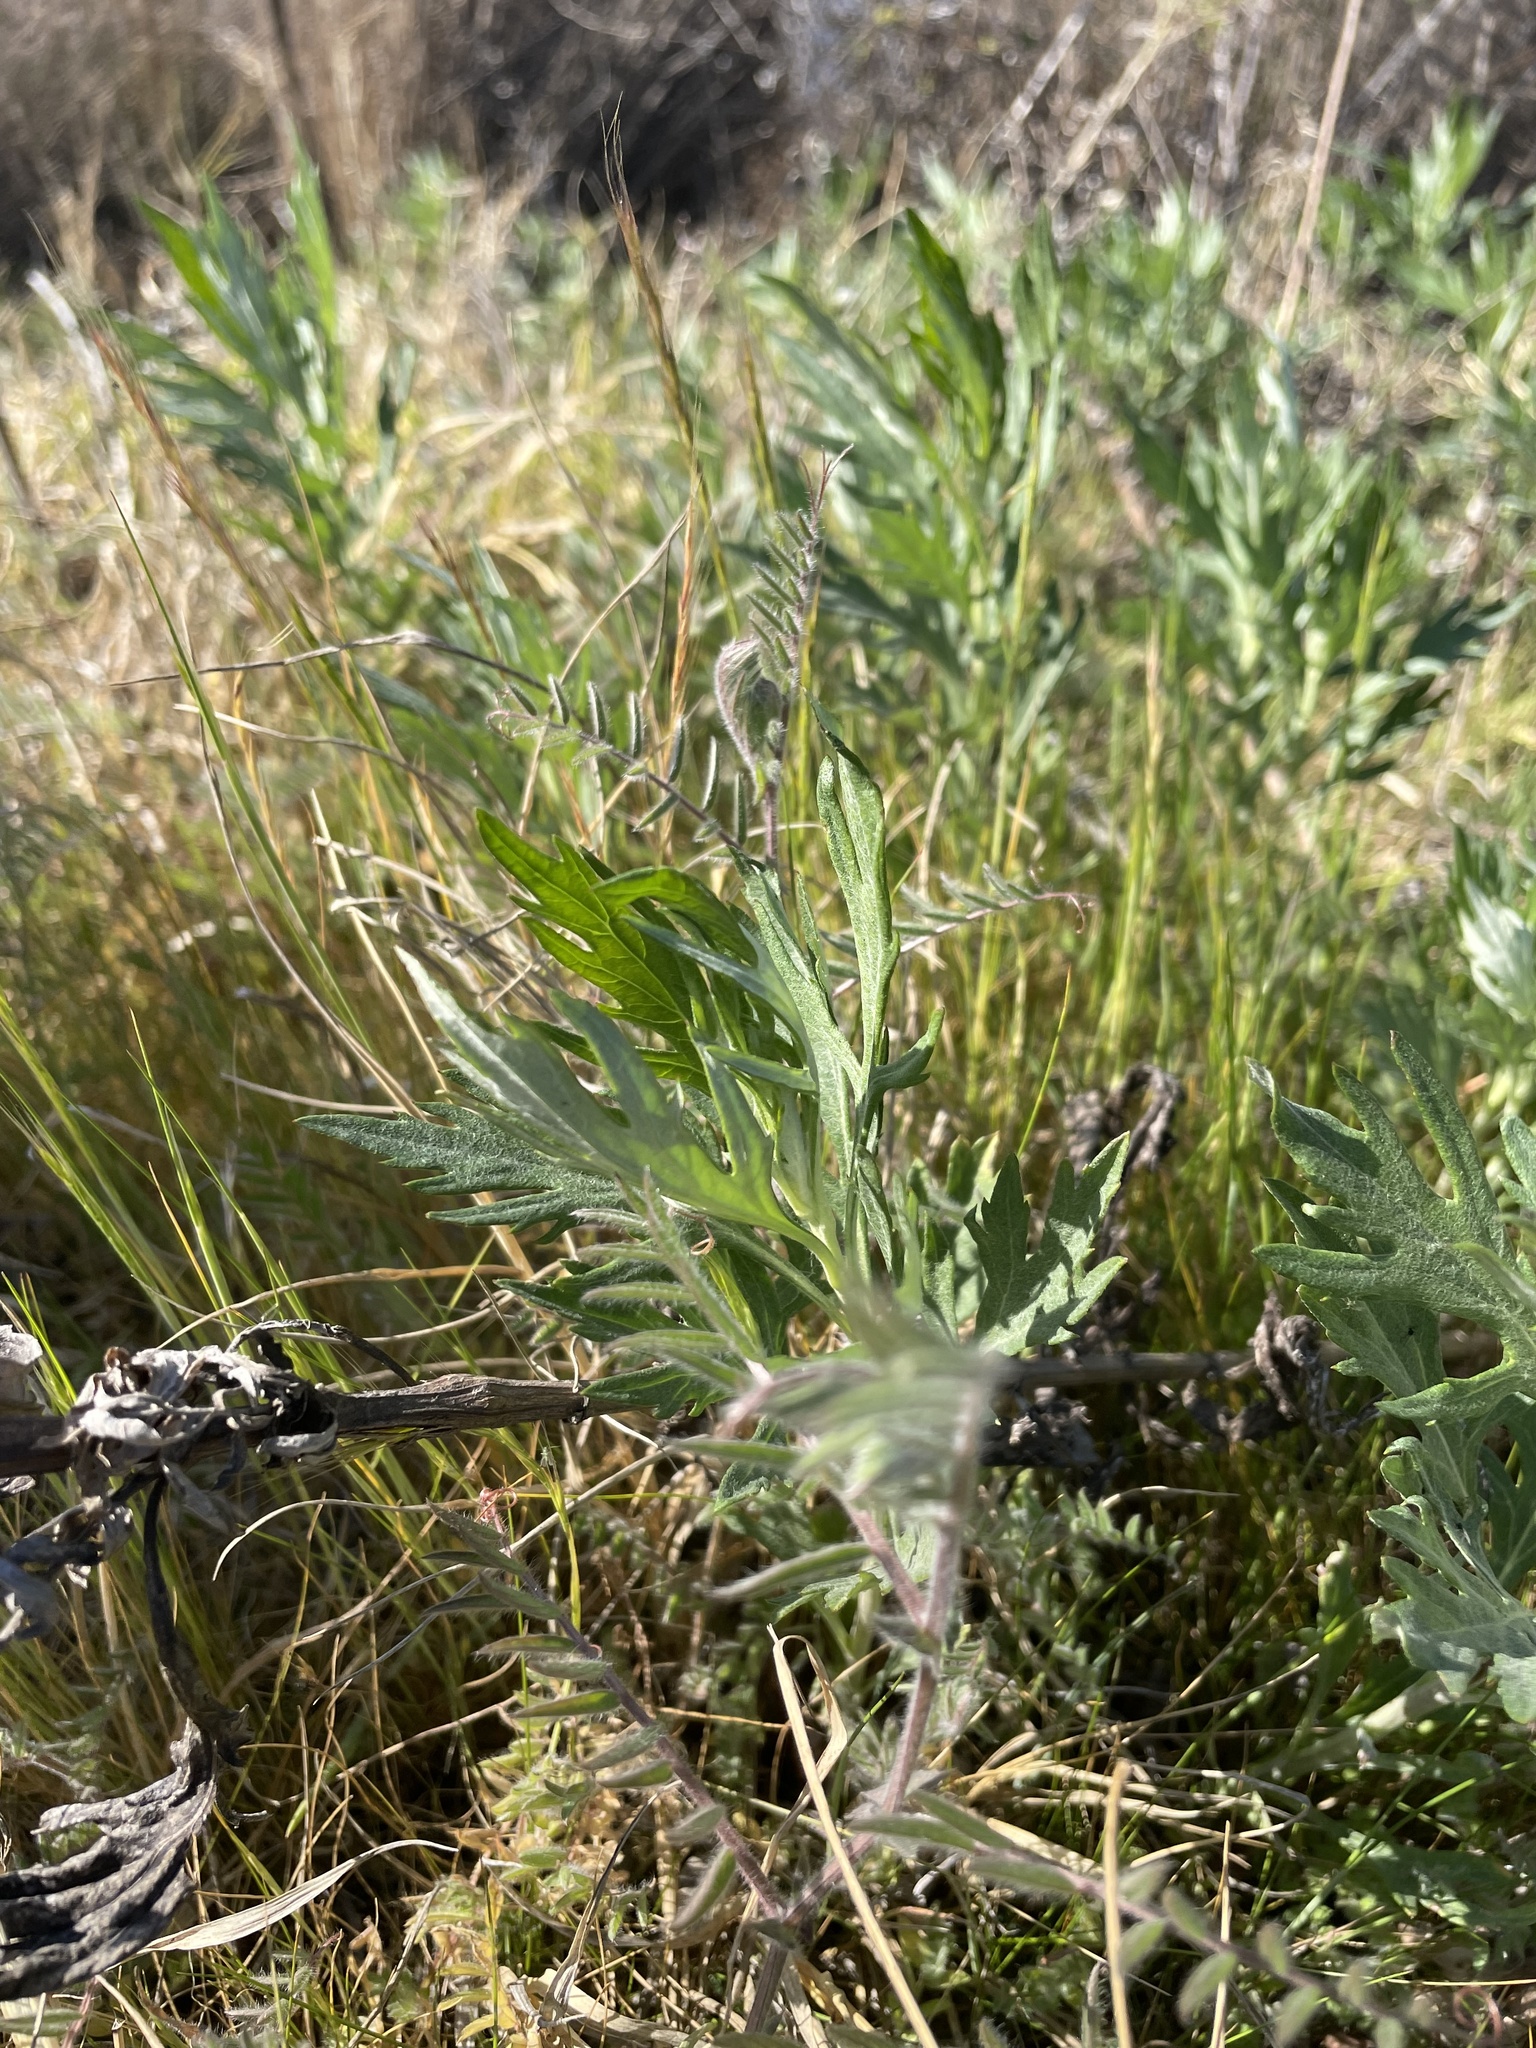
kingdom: Plantae
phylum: Tracheophyta
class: Magnoliopsida
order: Asterales
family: Asteraceae
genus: Artemisia
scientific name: Artemisia douglasiana
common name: Northwest mugwort
